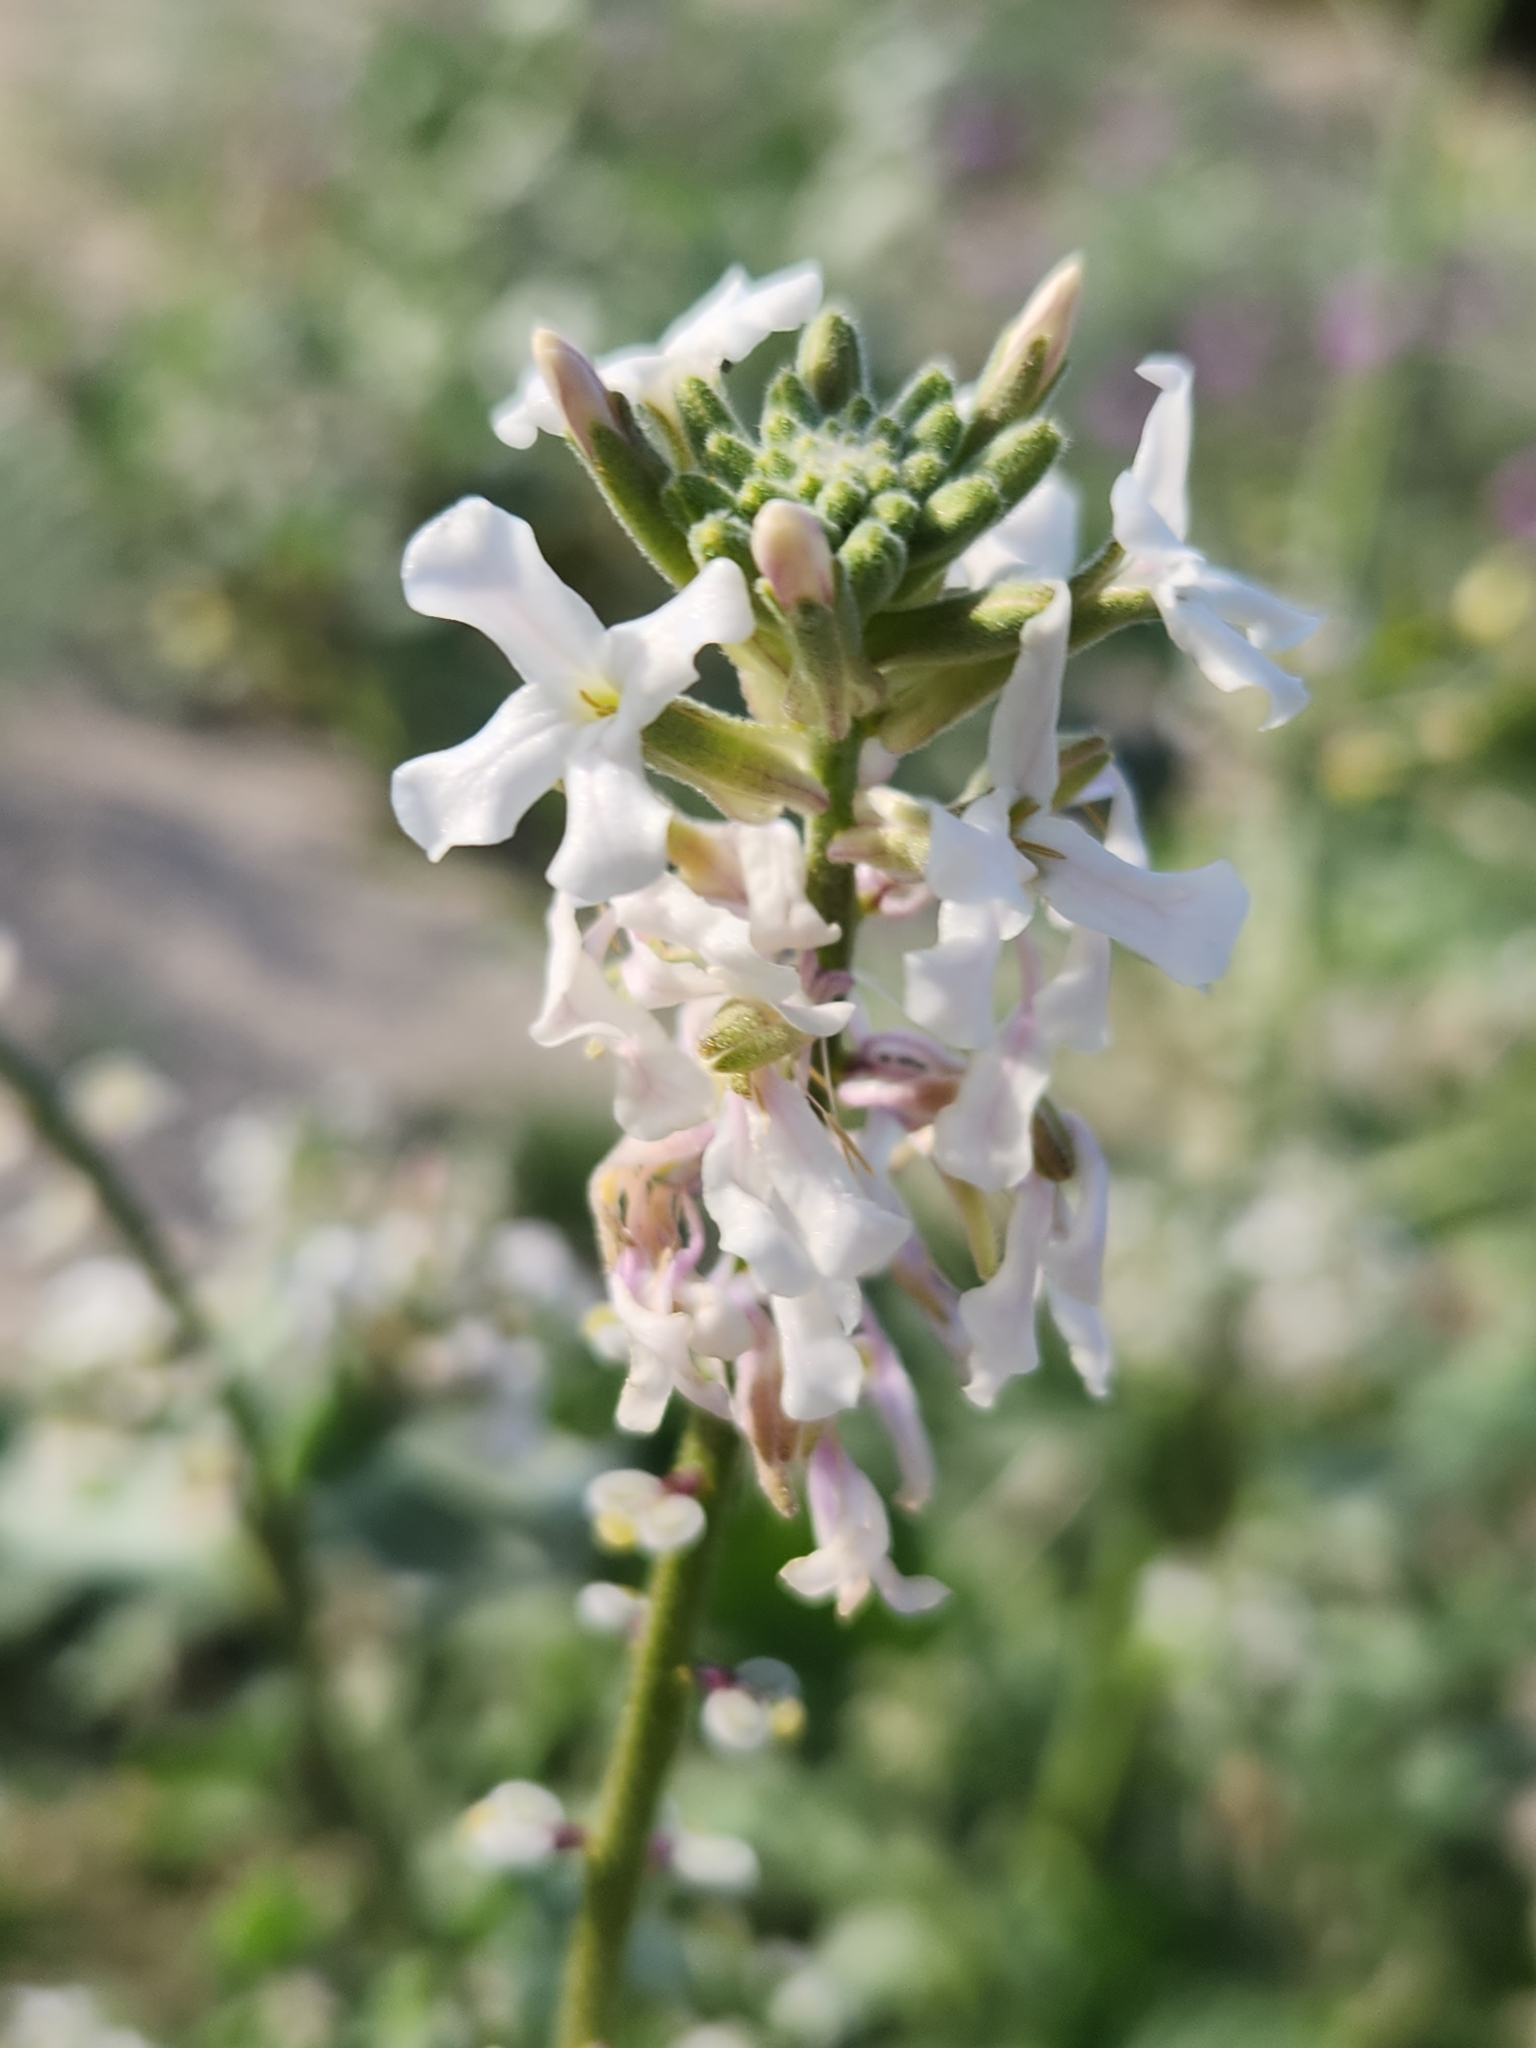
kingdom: Plantae
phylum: Tracheophyta
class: Magnoliopsida
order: Brassicales
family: Brassicaceae
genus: Dithyrea
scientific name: Dithyrea californica
